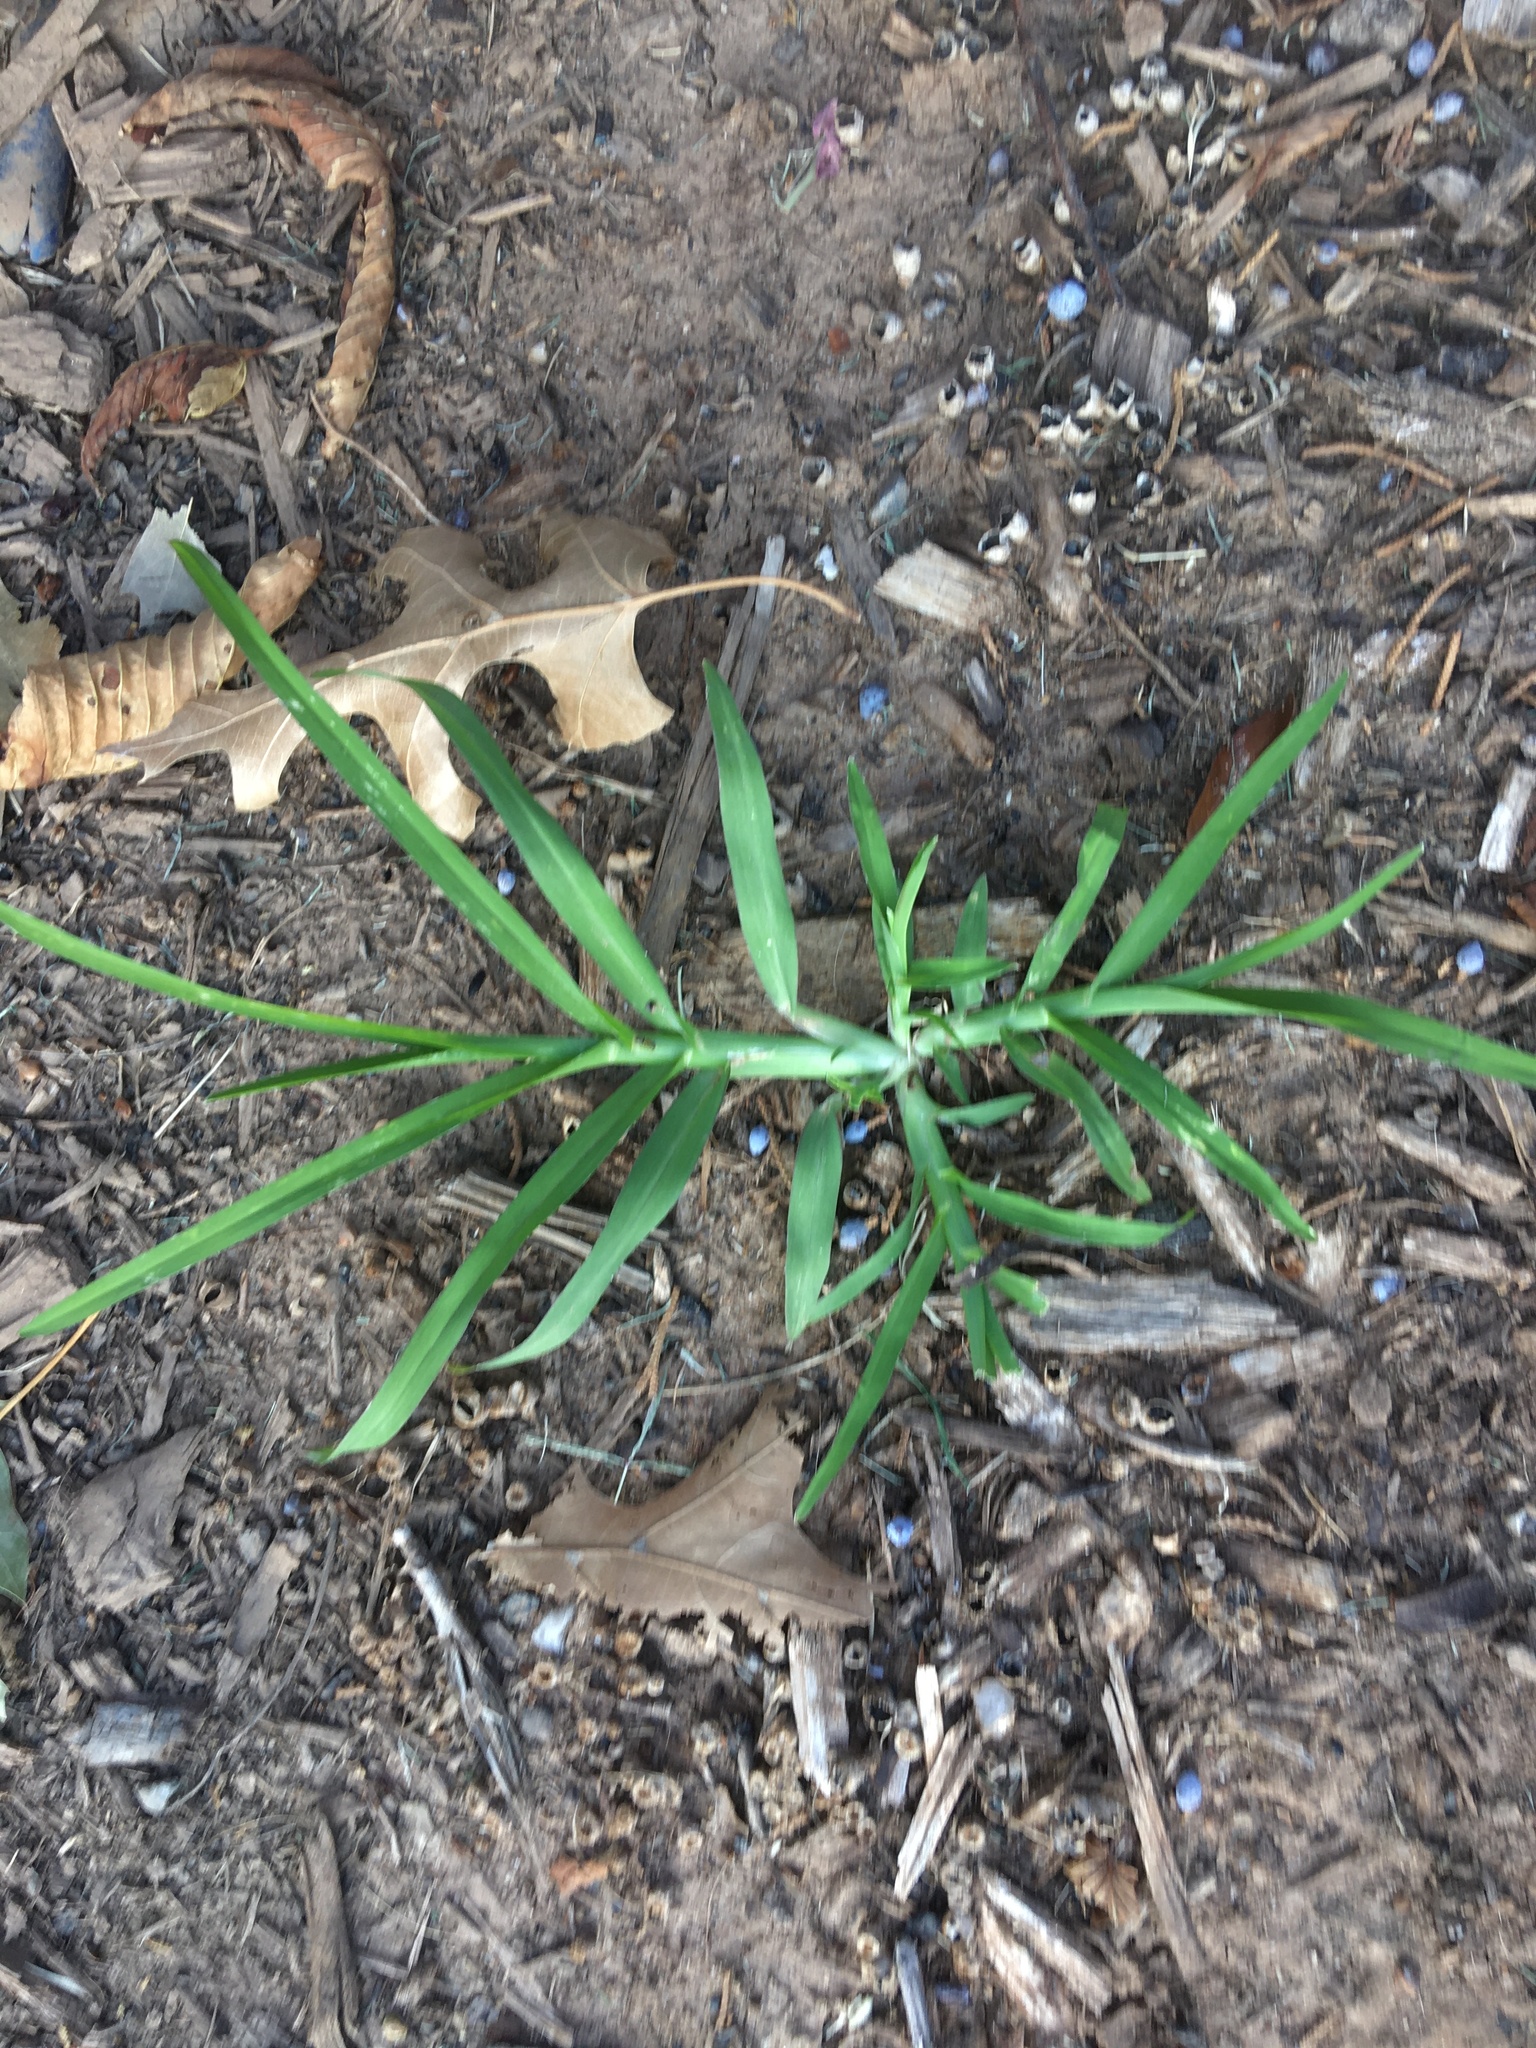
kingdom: Plantae
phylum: Tracheophyta
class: Liliopsida
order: Poales
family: Poaceae
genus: Eleusine
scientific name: Eleusine indica
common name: Yard-grass
